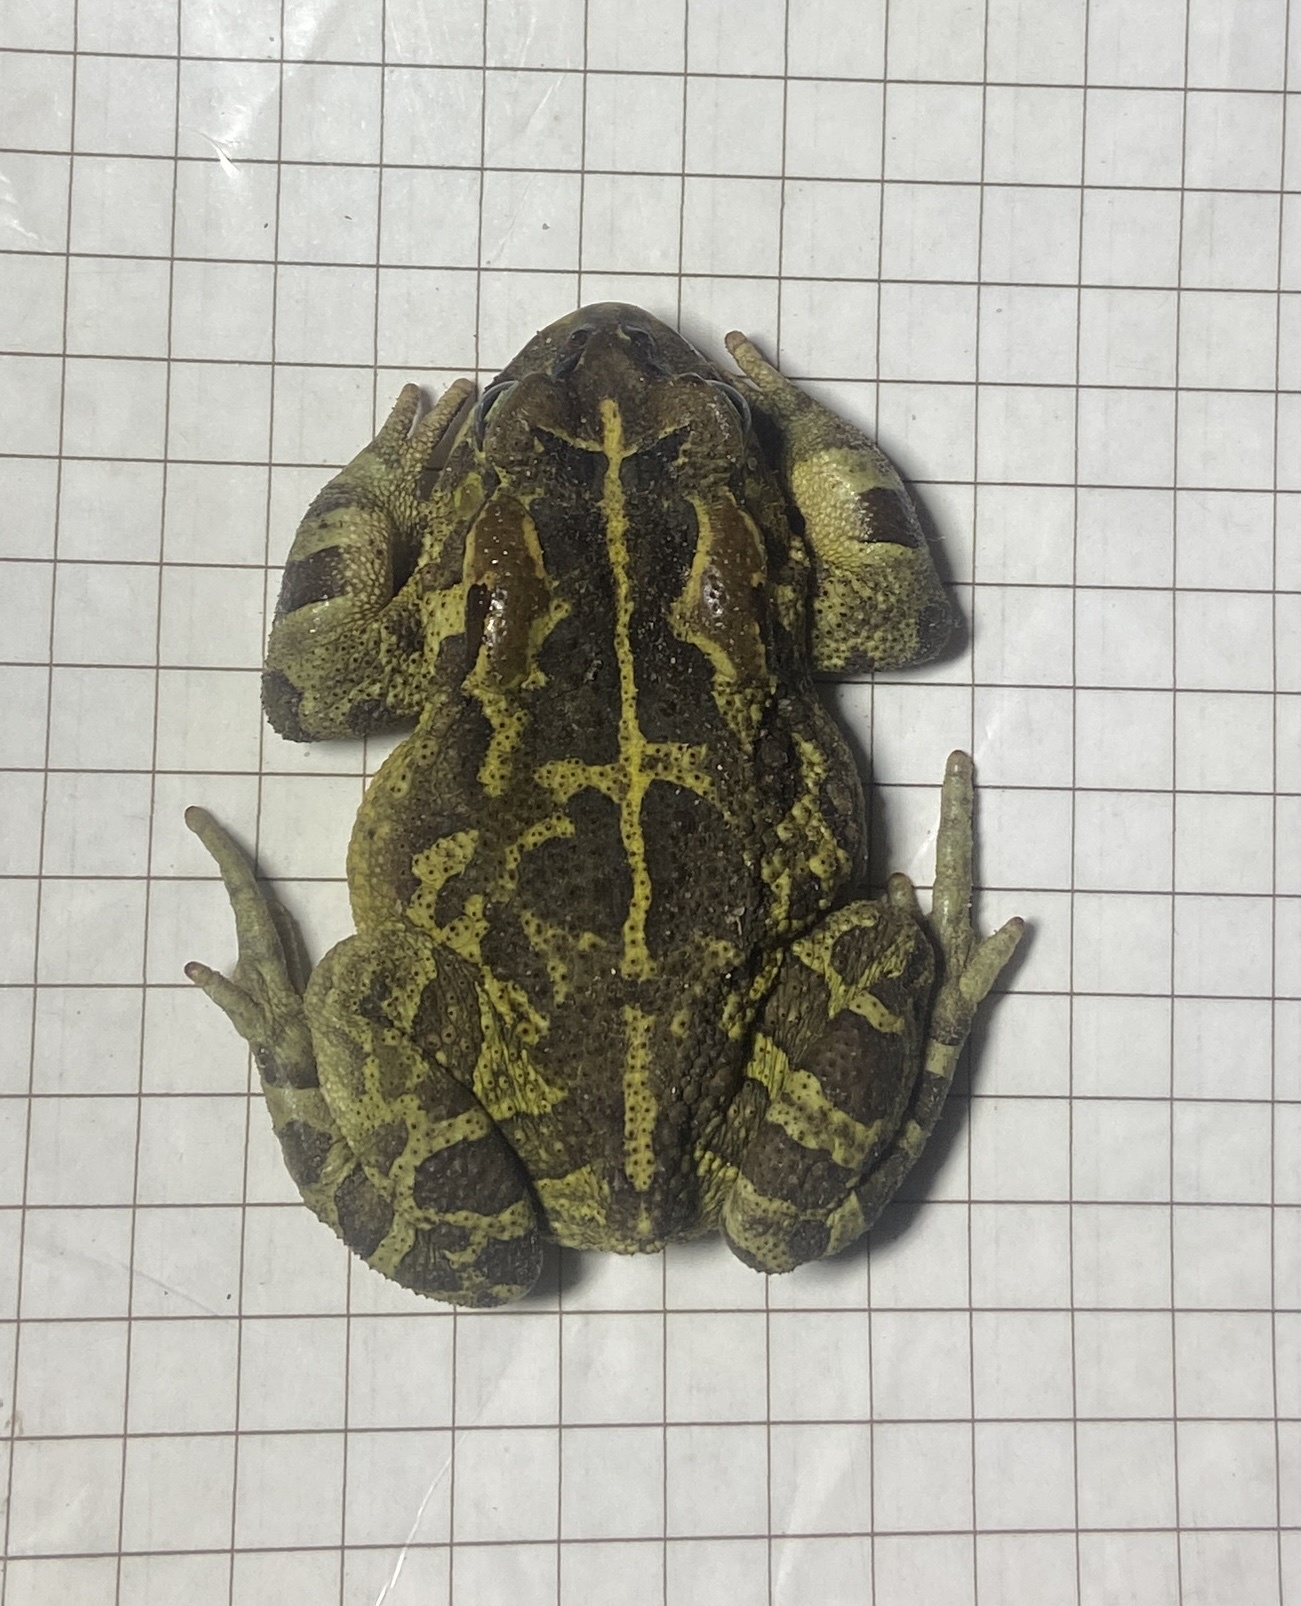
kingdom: Animalia
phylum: Chordata
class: Amphibia
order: Anura
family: Bufonidae
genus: Sclerophrys
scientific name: Sclerophrys pantherina
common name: Panther toad
